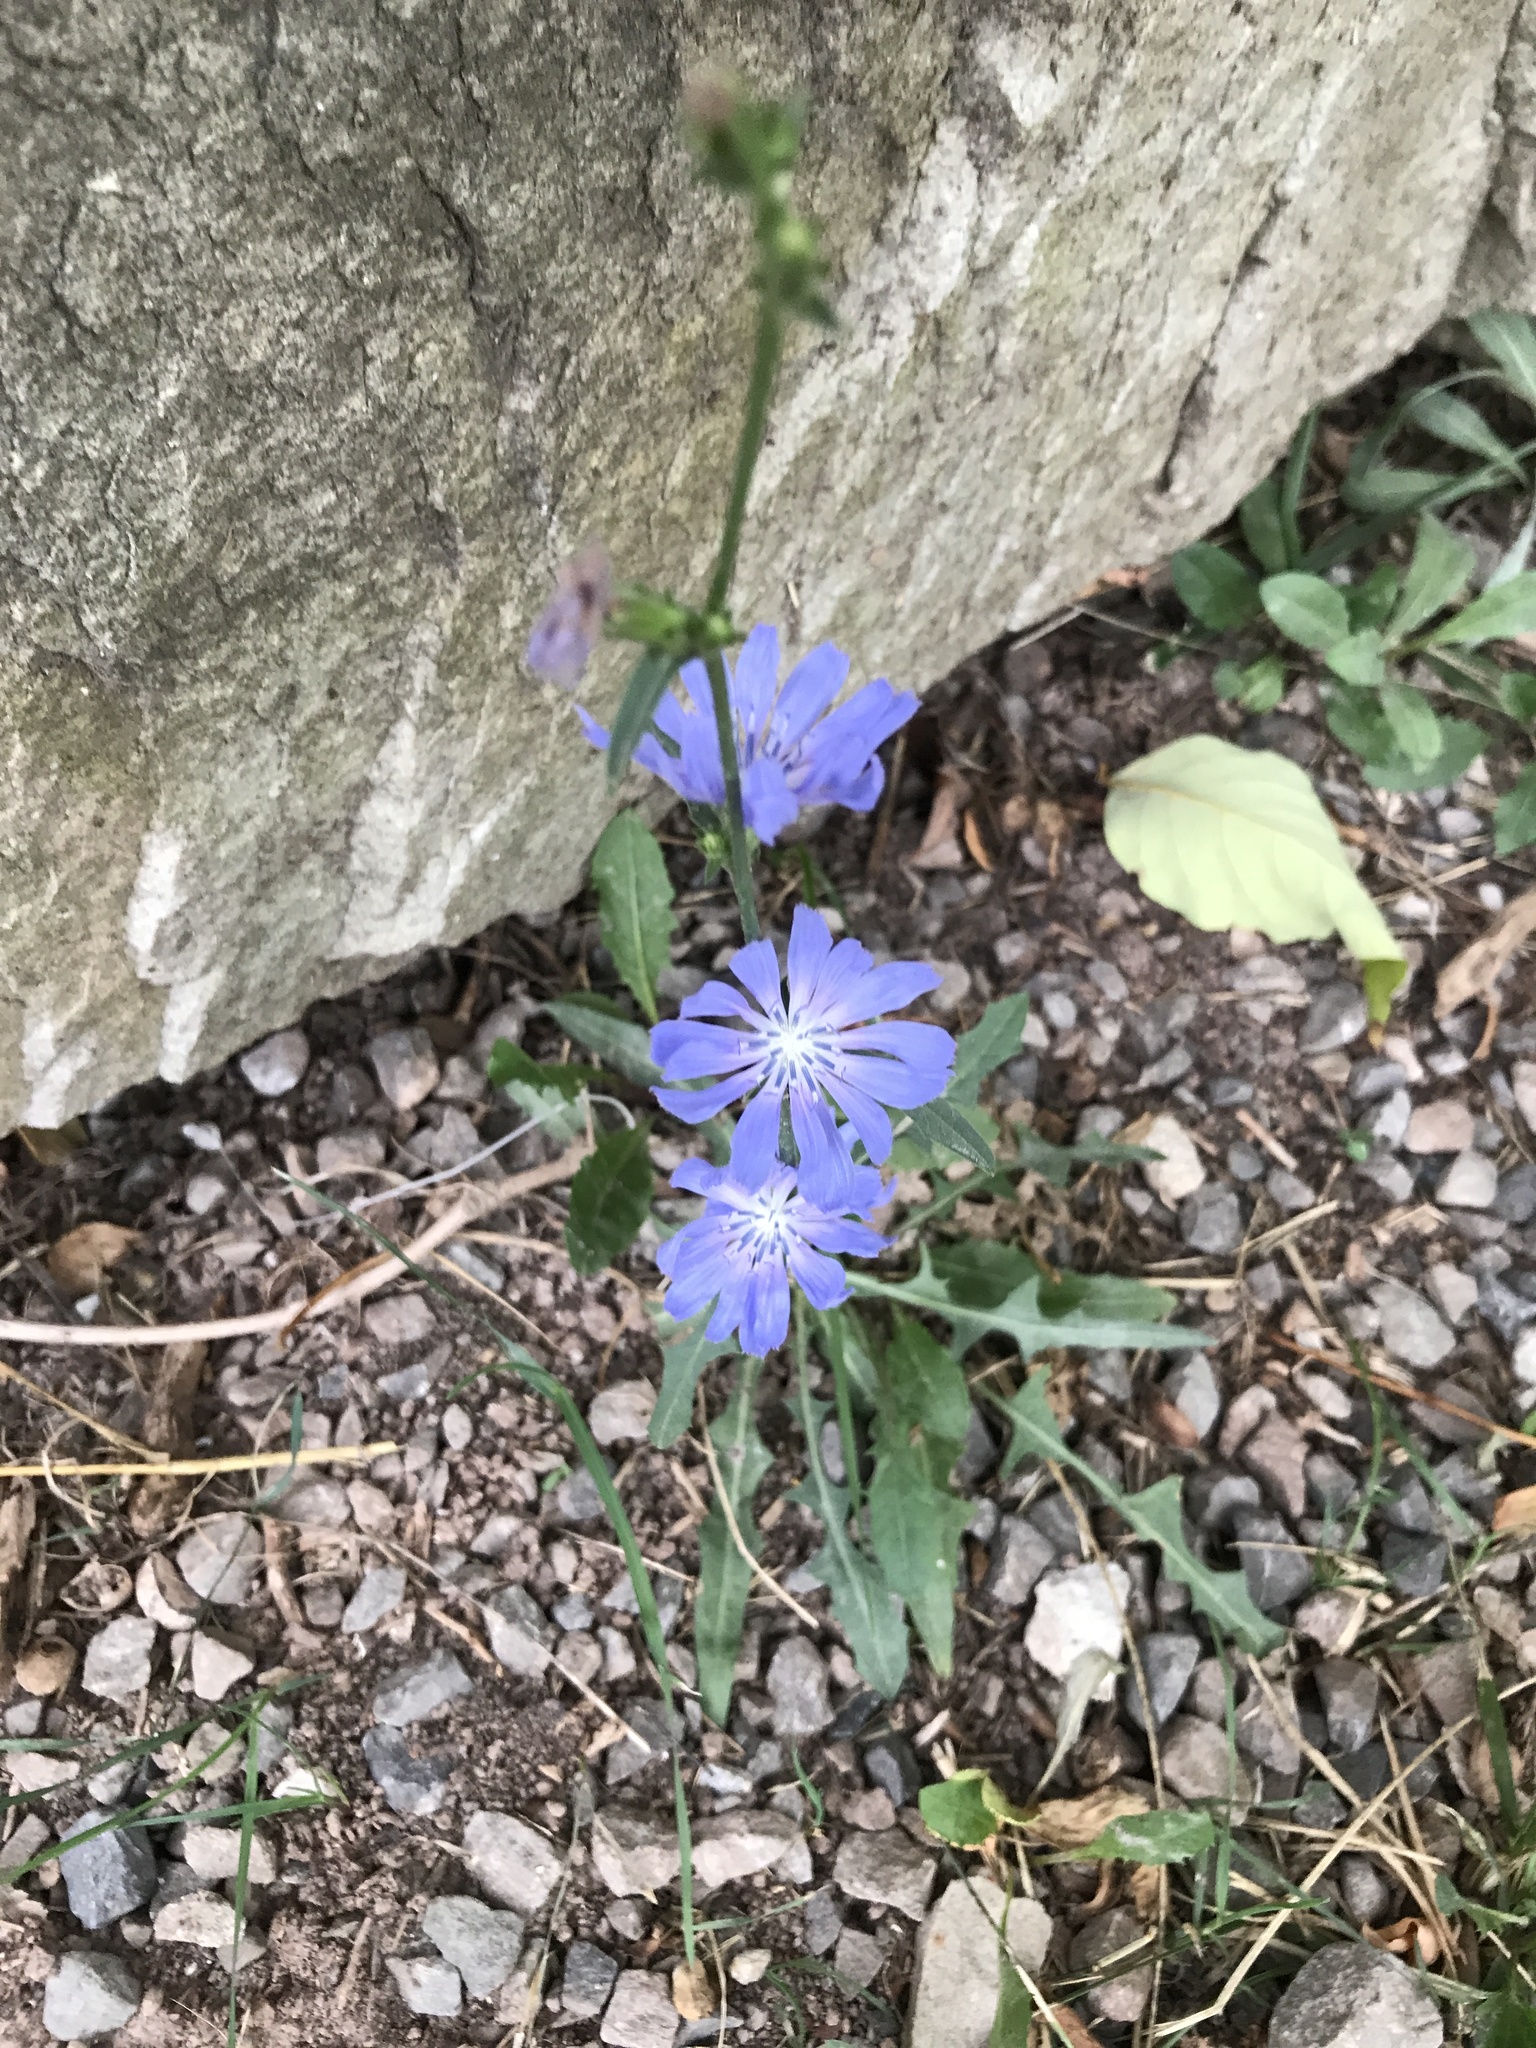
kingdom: Plantae
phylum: Tracheophyta
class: Magnoliopsida
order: Asterales
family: Asteraceae
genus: Cichorium
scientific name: Cichorium intybus
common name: Chicory
